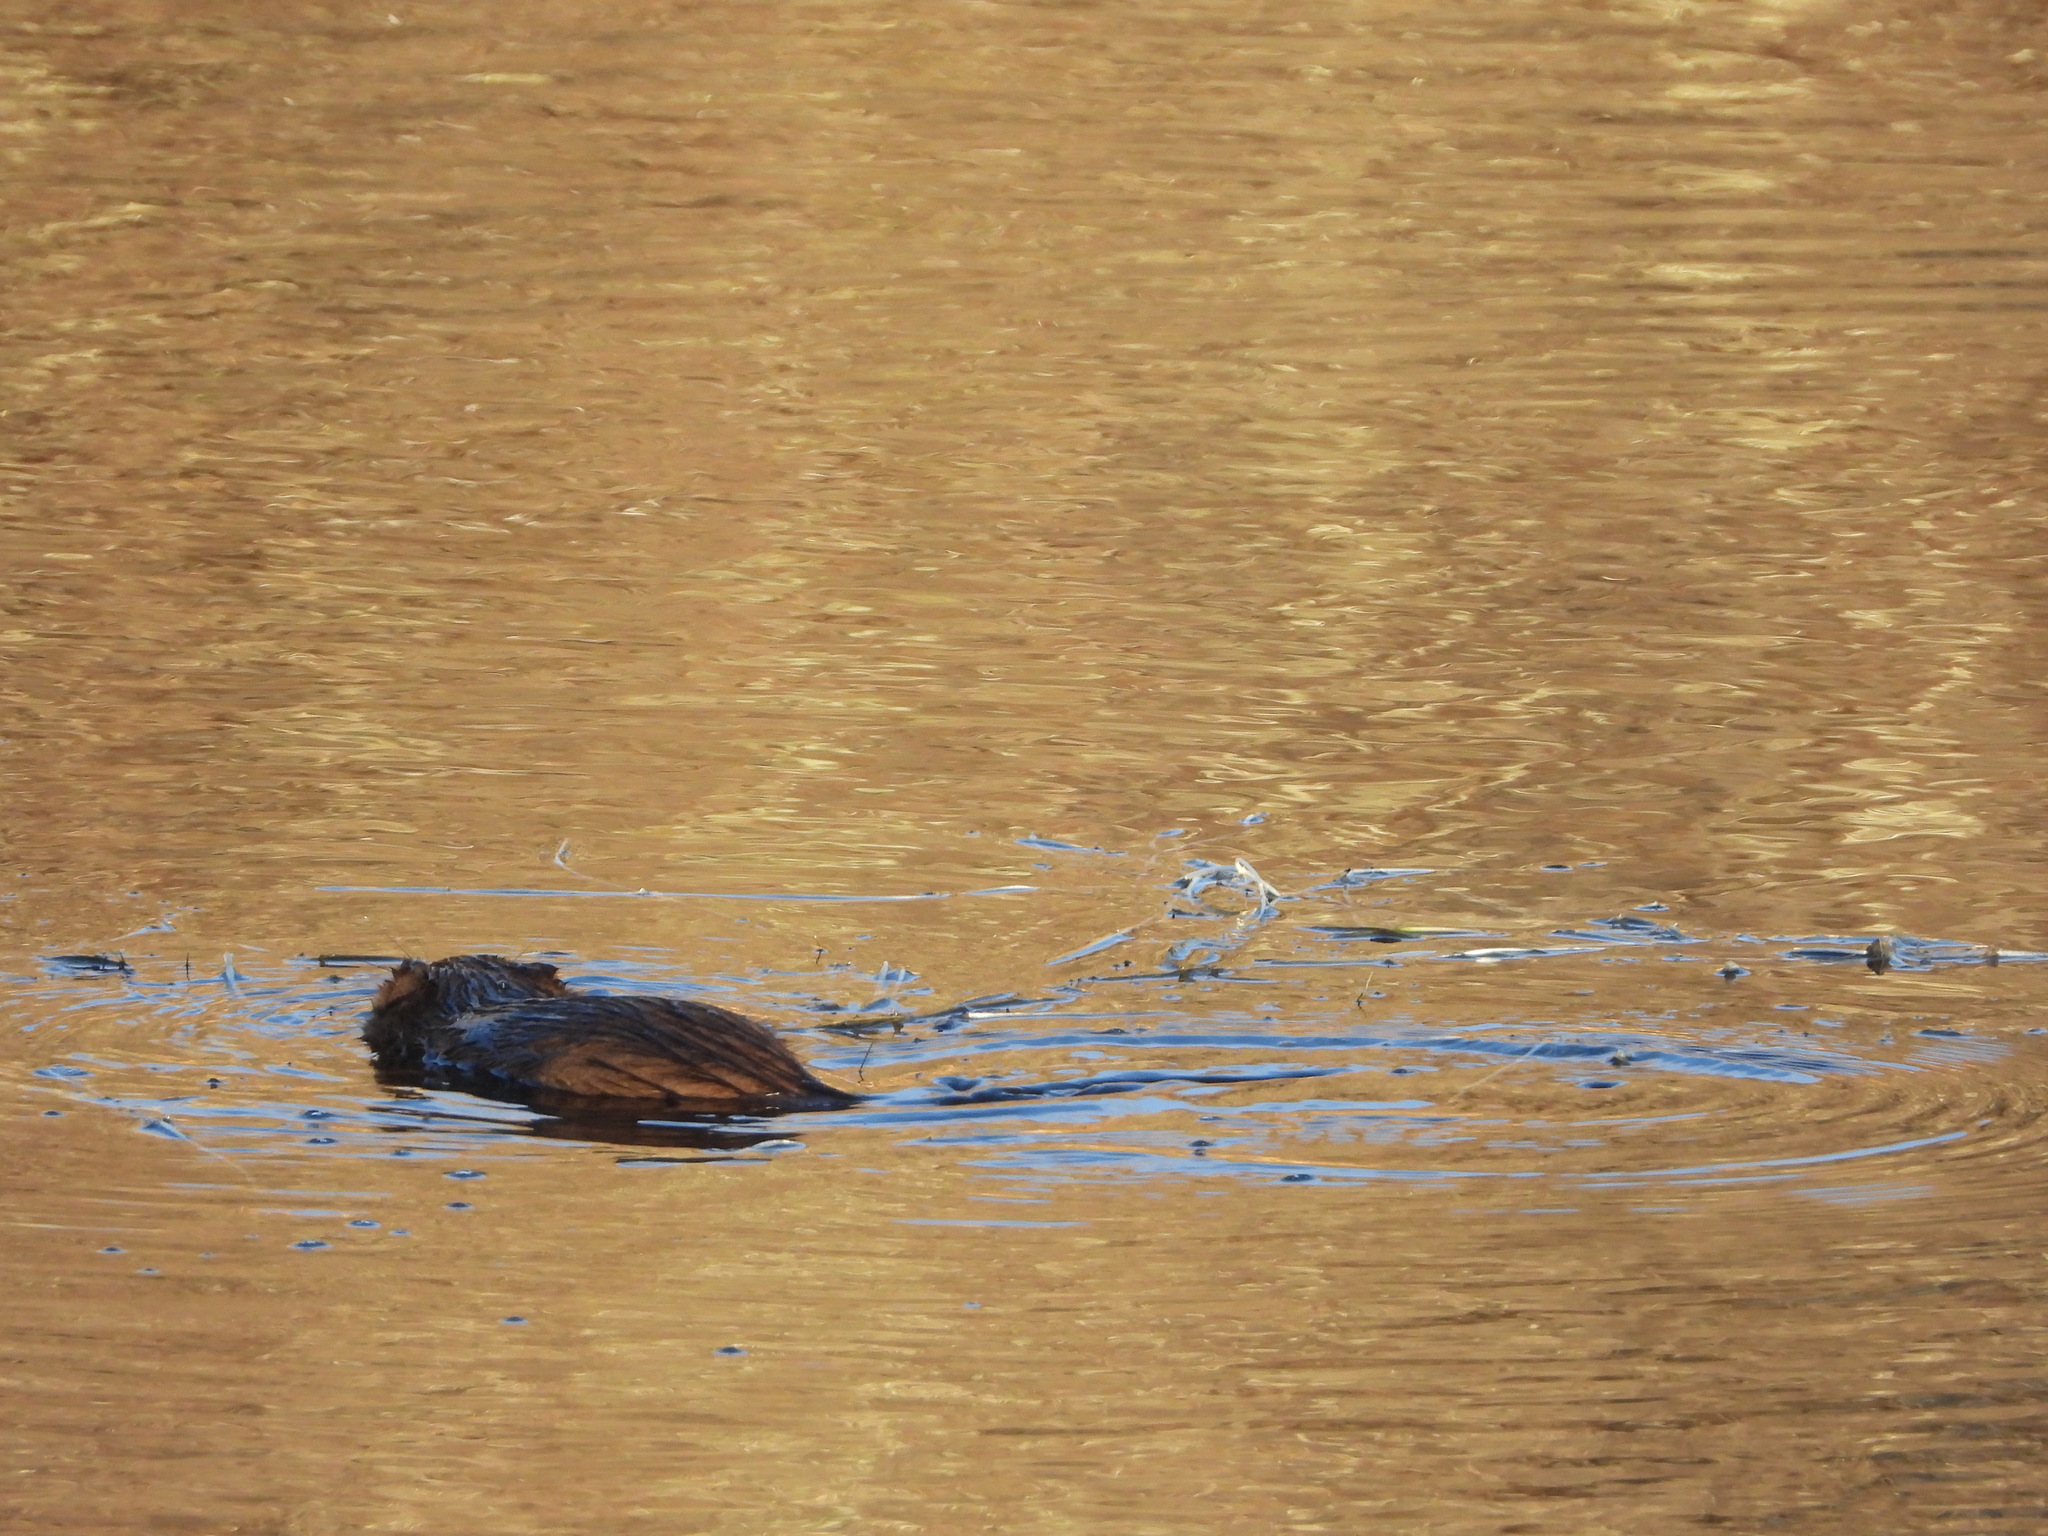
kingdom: Animalia
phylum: Chordata
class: Mammalia
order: Rodentia
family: Cricetidae
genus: Ondatra
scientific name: Ondatra zibethicus
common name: Muskrat
